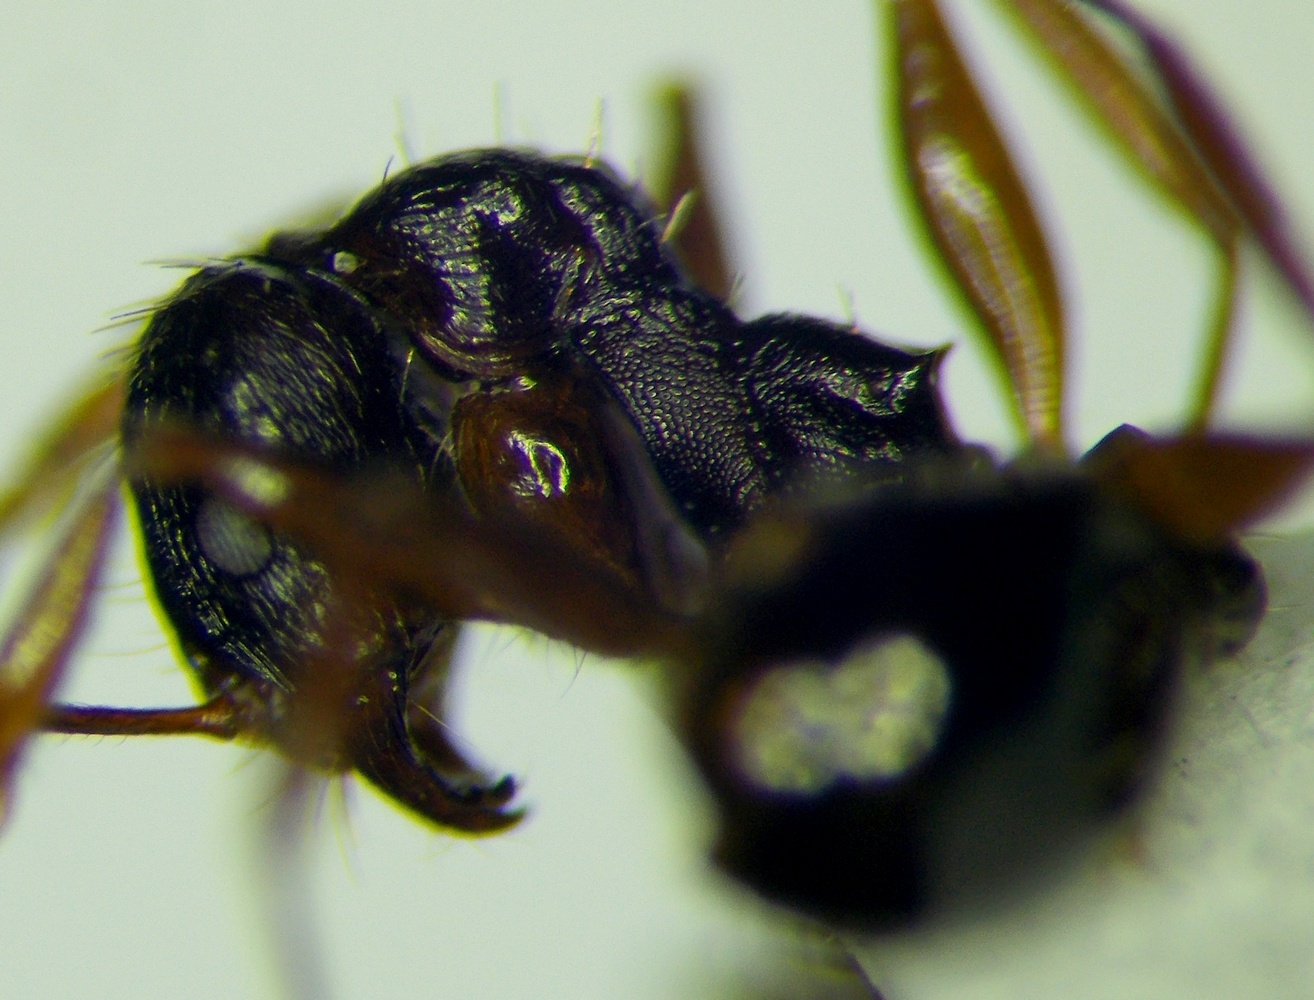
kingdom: Animalia
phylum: Arthropoda
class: Insecta
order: Hymenoptera
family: Formicidae
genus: Aphaenogaster
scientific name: Aphaenogaster
